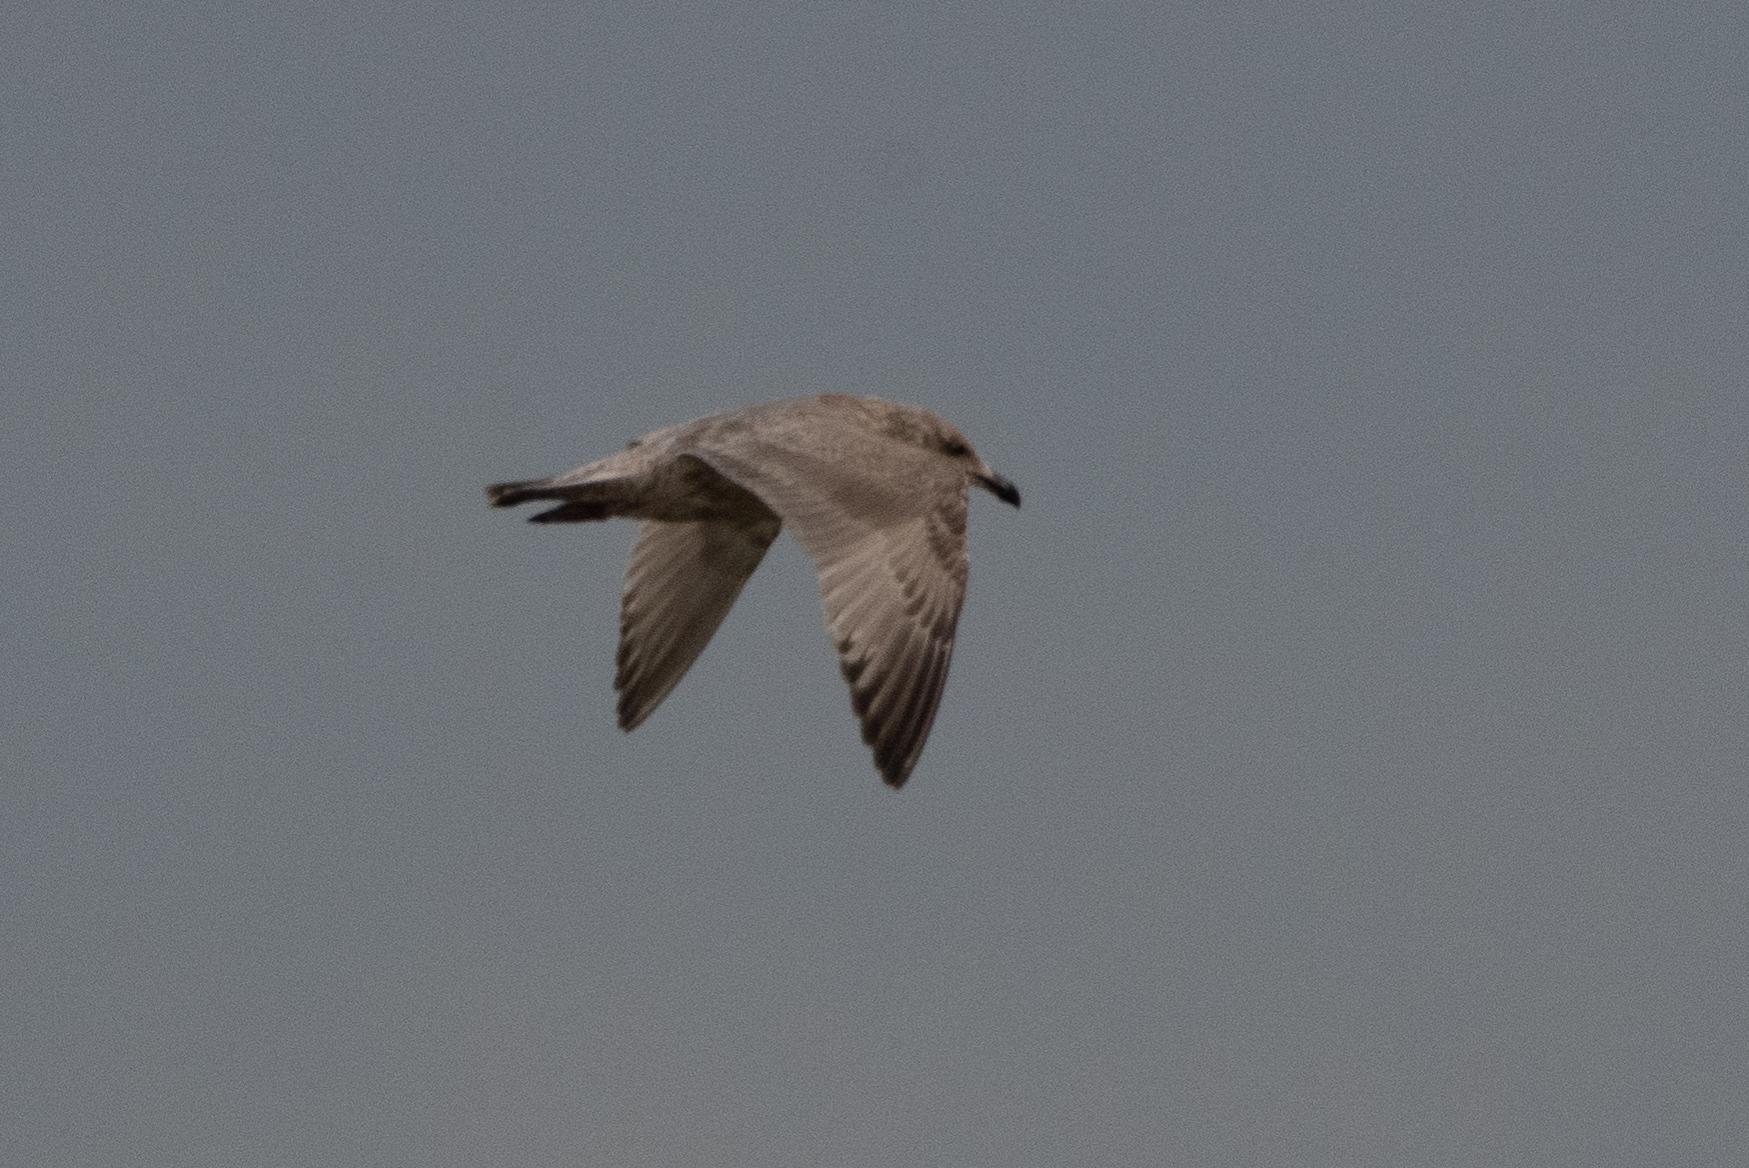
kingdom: Animalia
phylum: Chordata
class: Aves
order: Charadriiformes
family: Laridae
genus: Larus
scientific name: Larus
